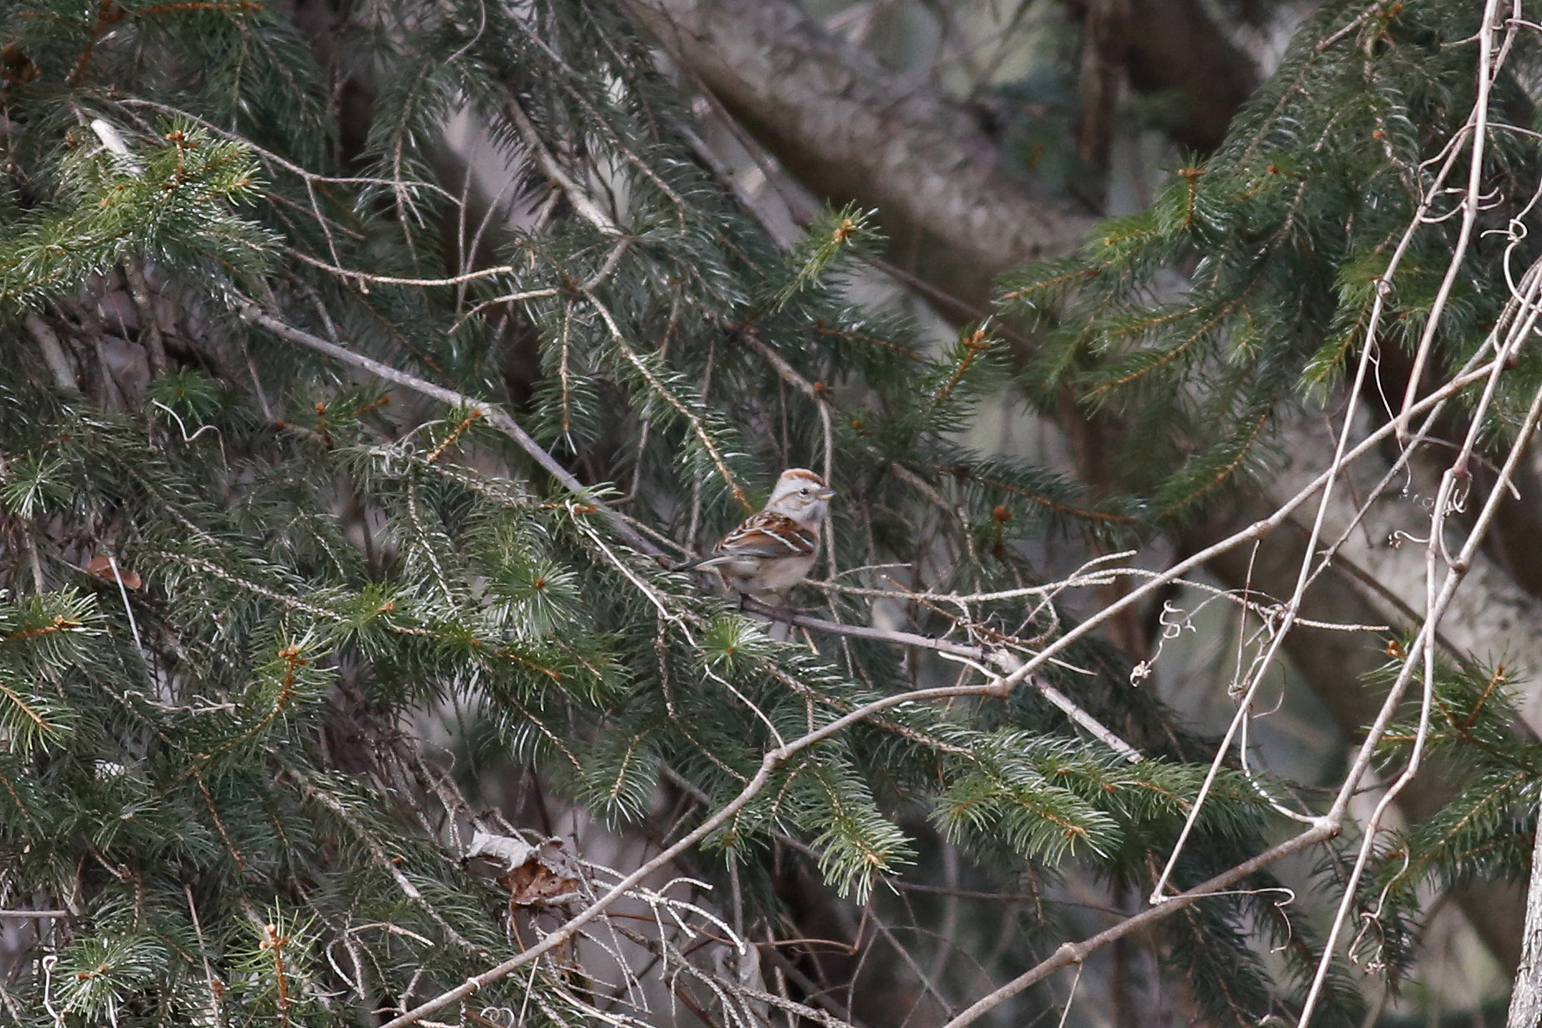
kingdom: Animalia
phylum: Chordata
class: Aves
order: Passeriformes
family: Passerellidae
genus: Spizelloides
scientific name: Spizelloides arborea
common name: American tree sparrow
